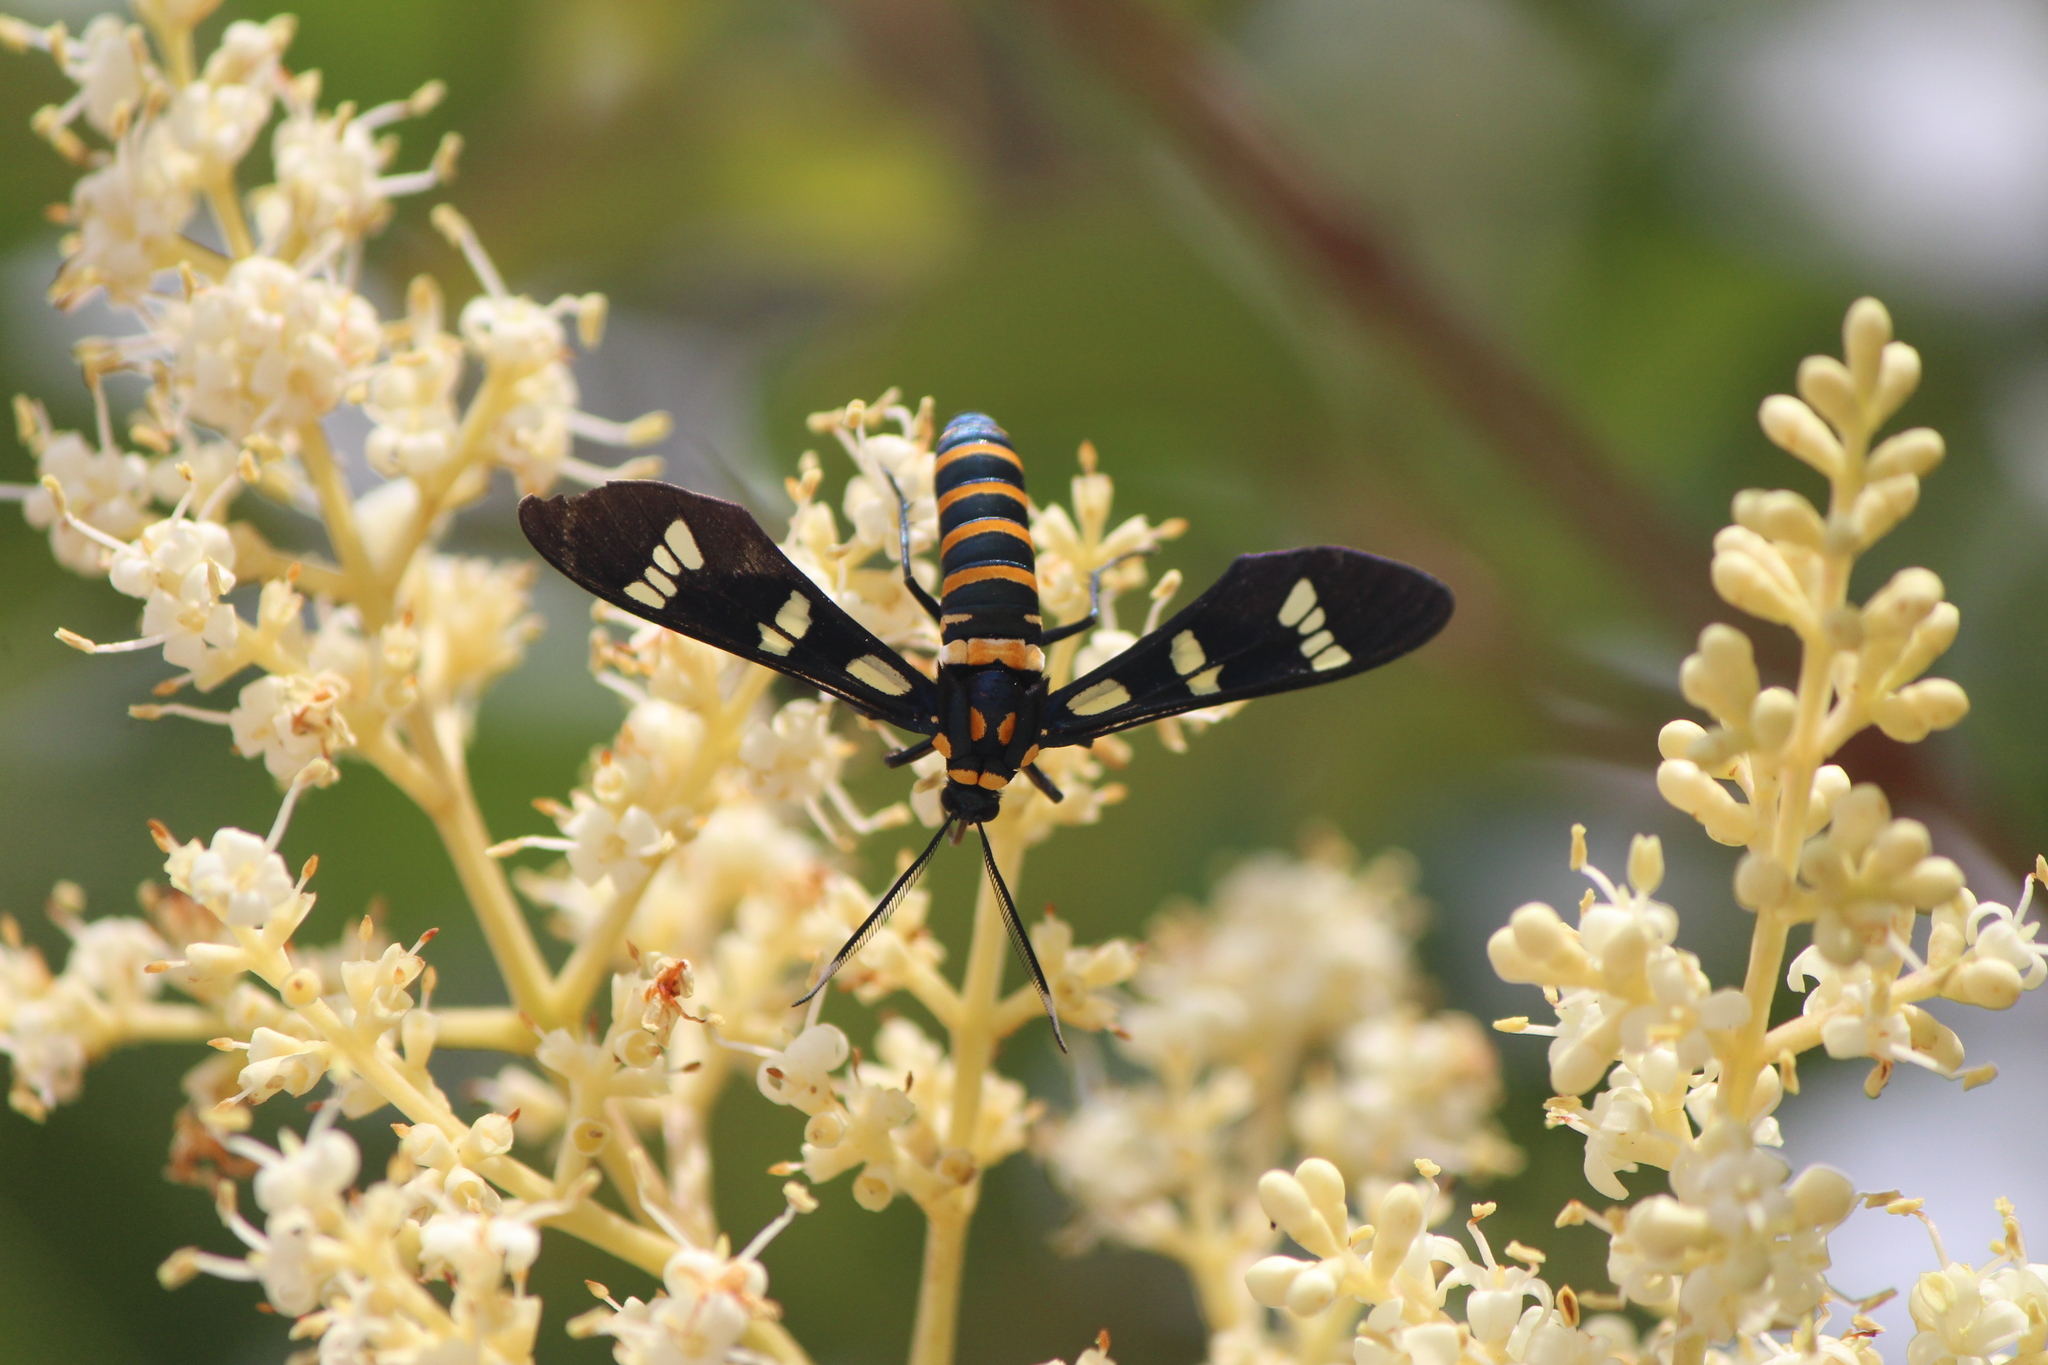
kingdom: Animalia
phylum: Arthropoda
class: Insecta
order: Lepidoptera
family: Erebidae
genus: Syntomeida
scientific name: Syntomeida melanthus
